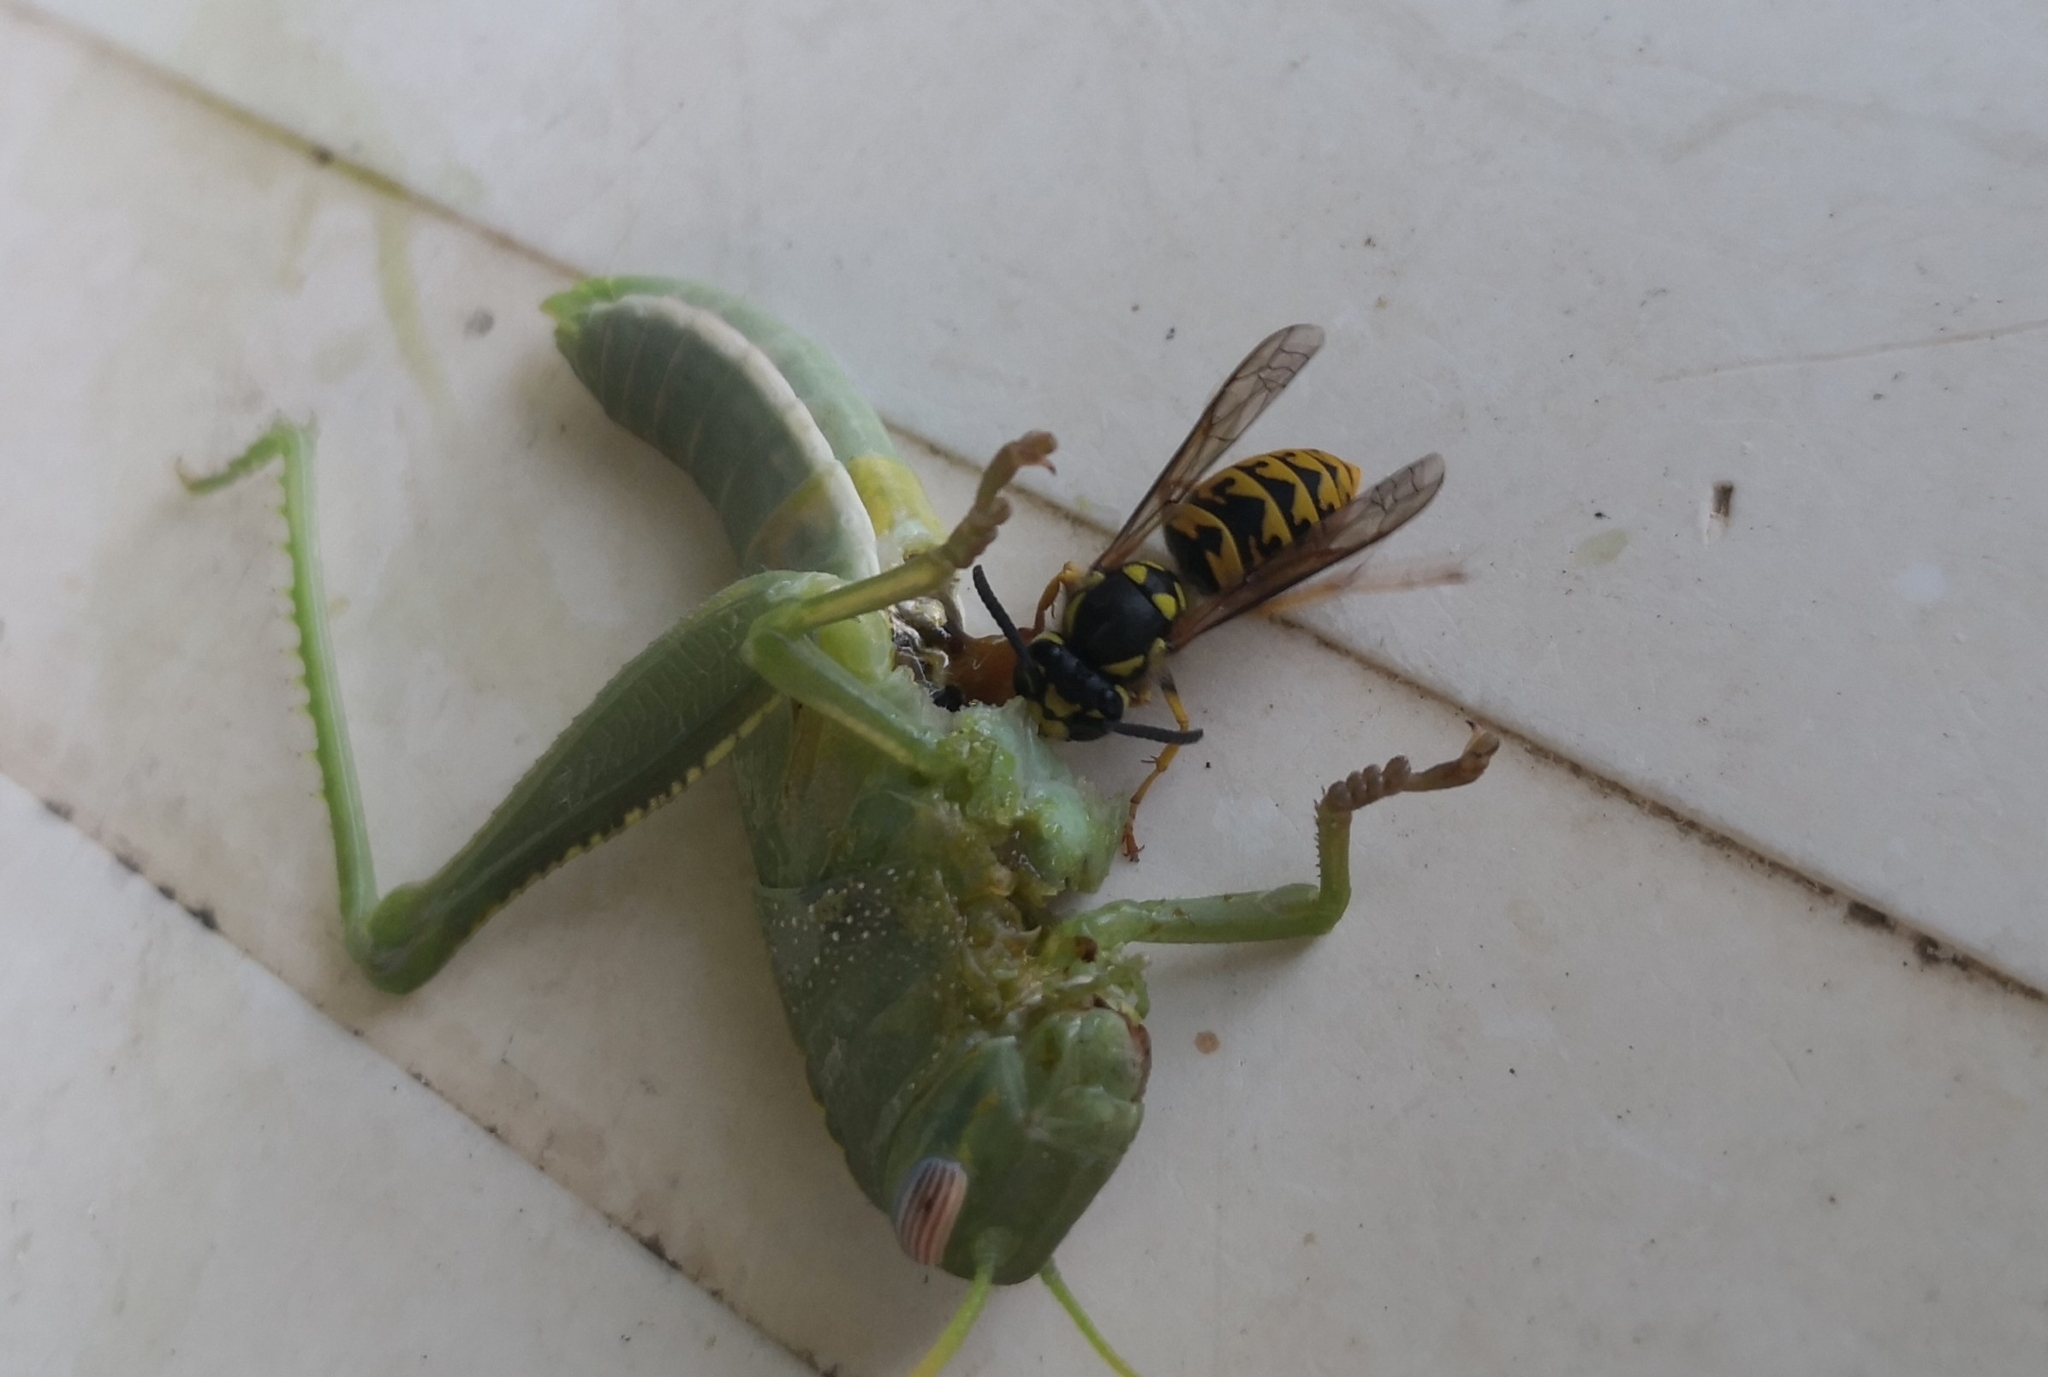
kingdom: Animalia
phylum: Arthropoda
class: Insecta
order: Hymenoptera
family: Vespidae
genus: Vespula
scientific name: Vespula germanica
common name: German wasp
